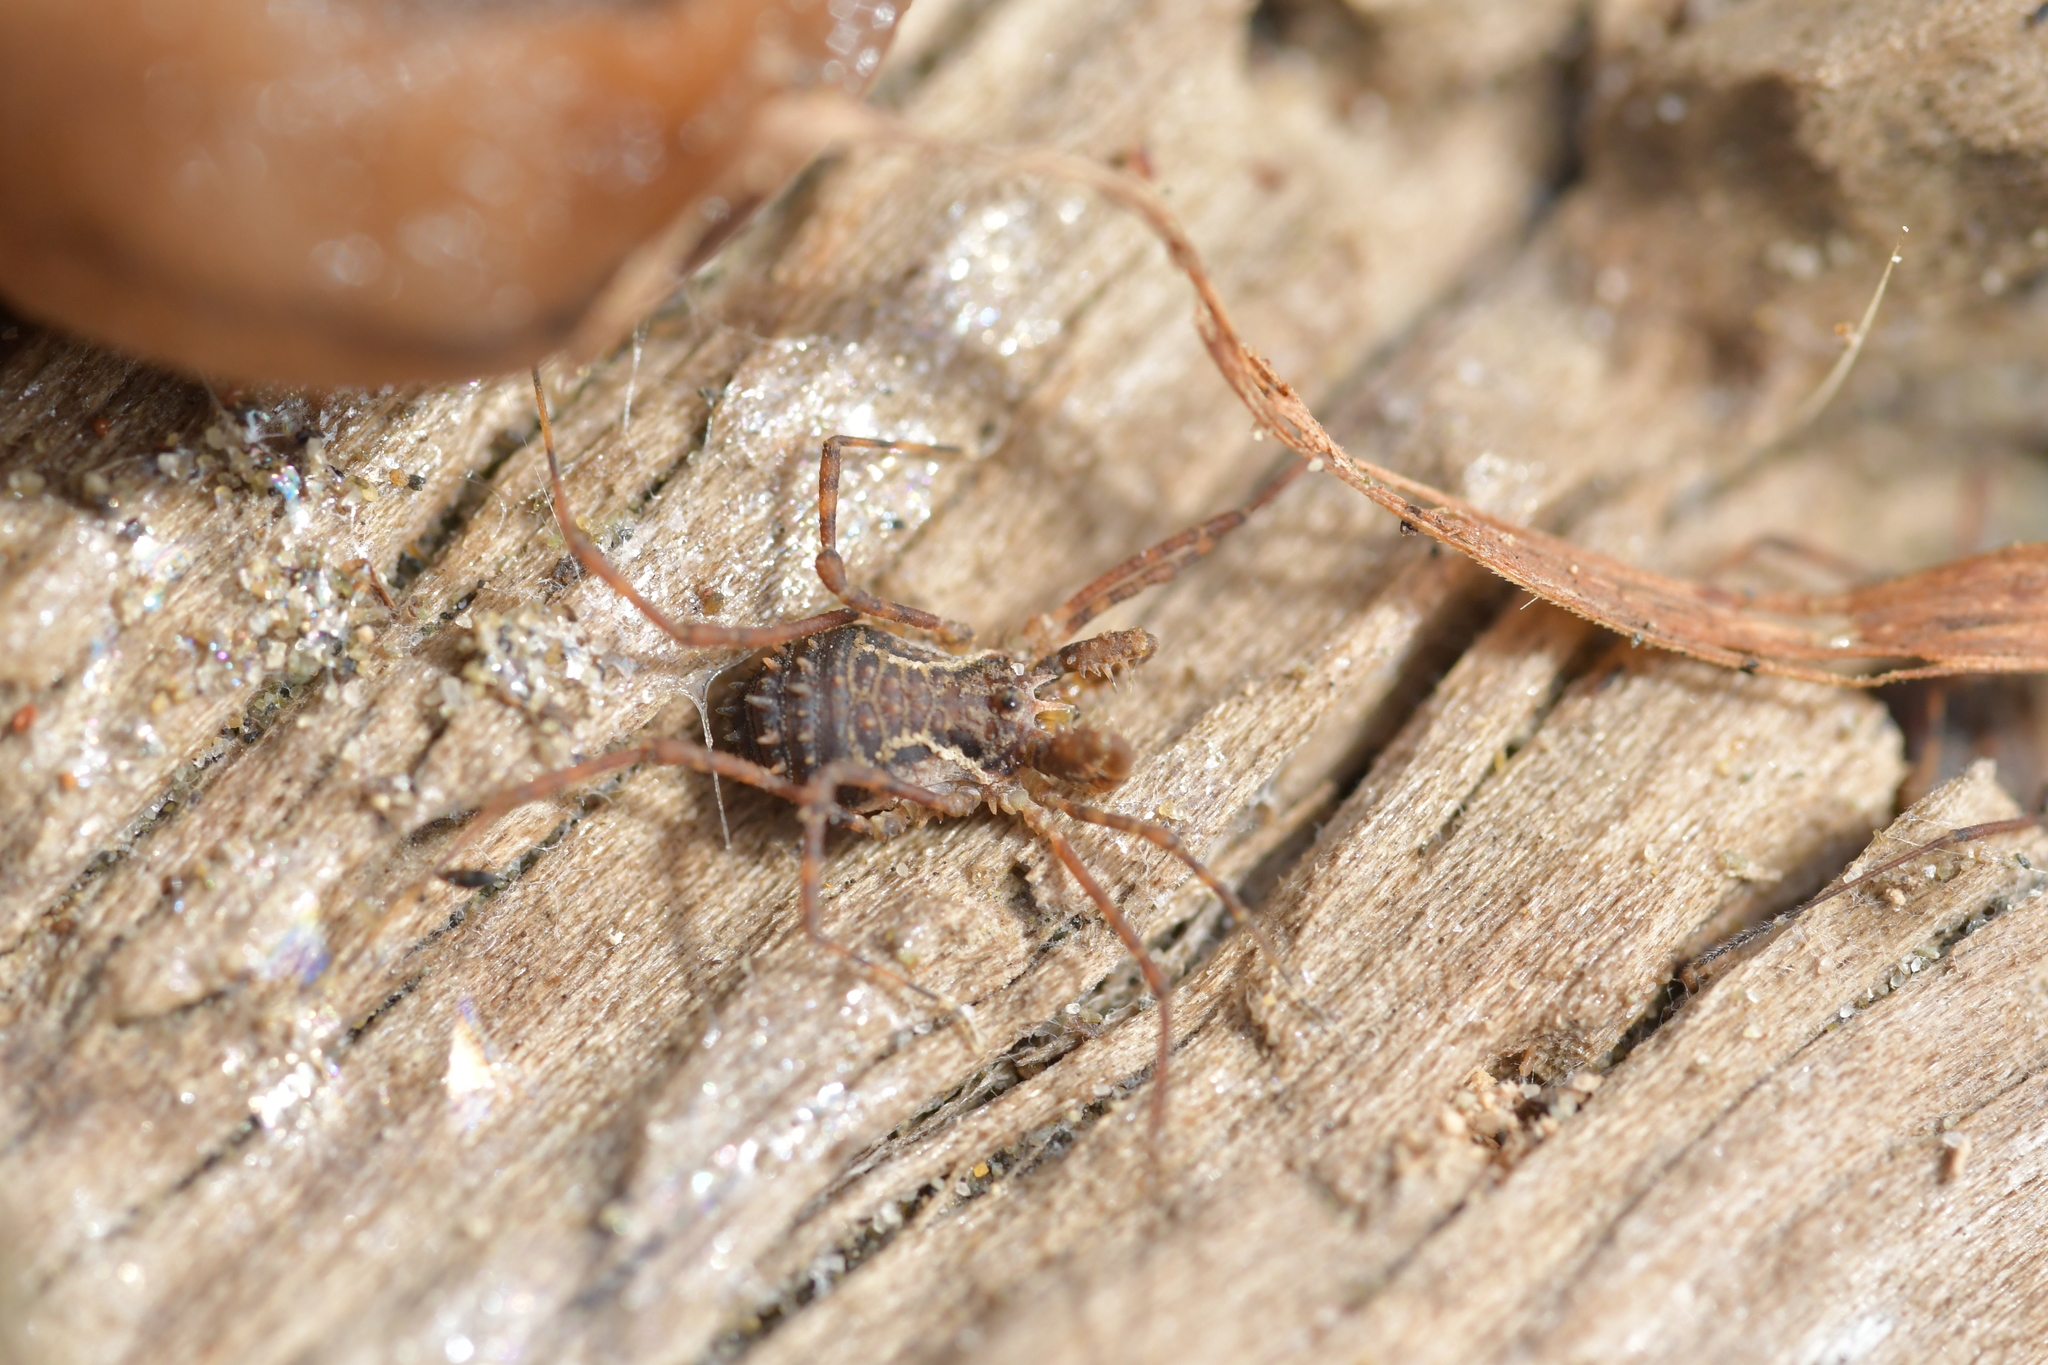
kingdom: Animalia
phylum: Arthropoda
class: Arachnida
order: Opiliones
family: Triaenonychidae
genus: Algidia
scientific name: Algidia chiltoni
